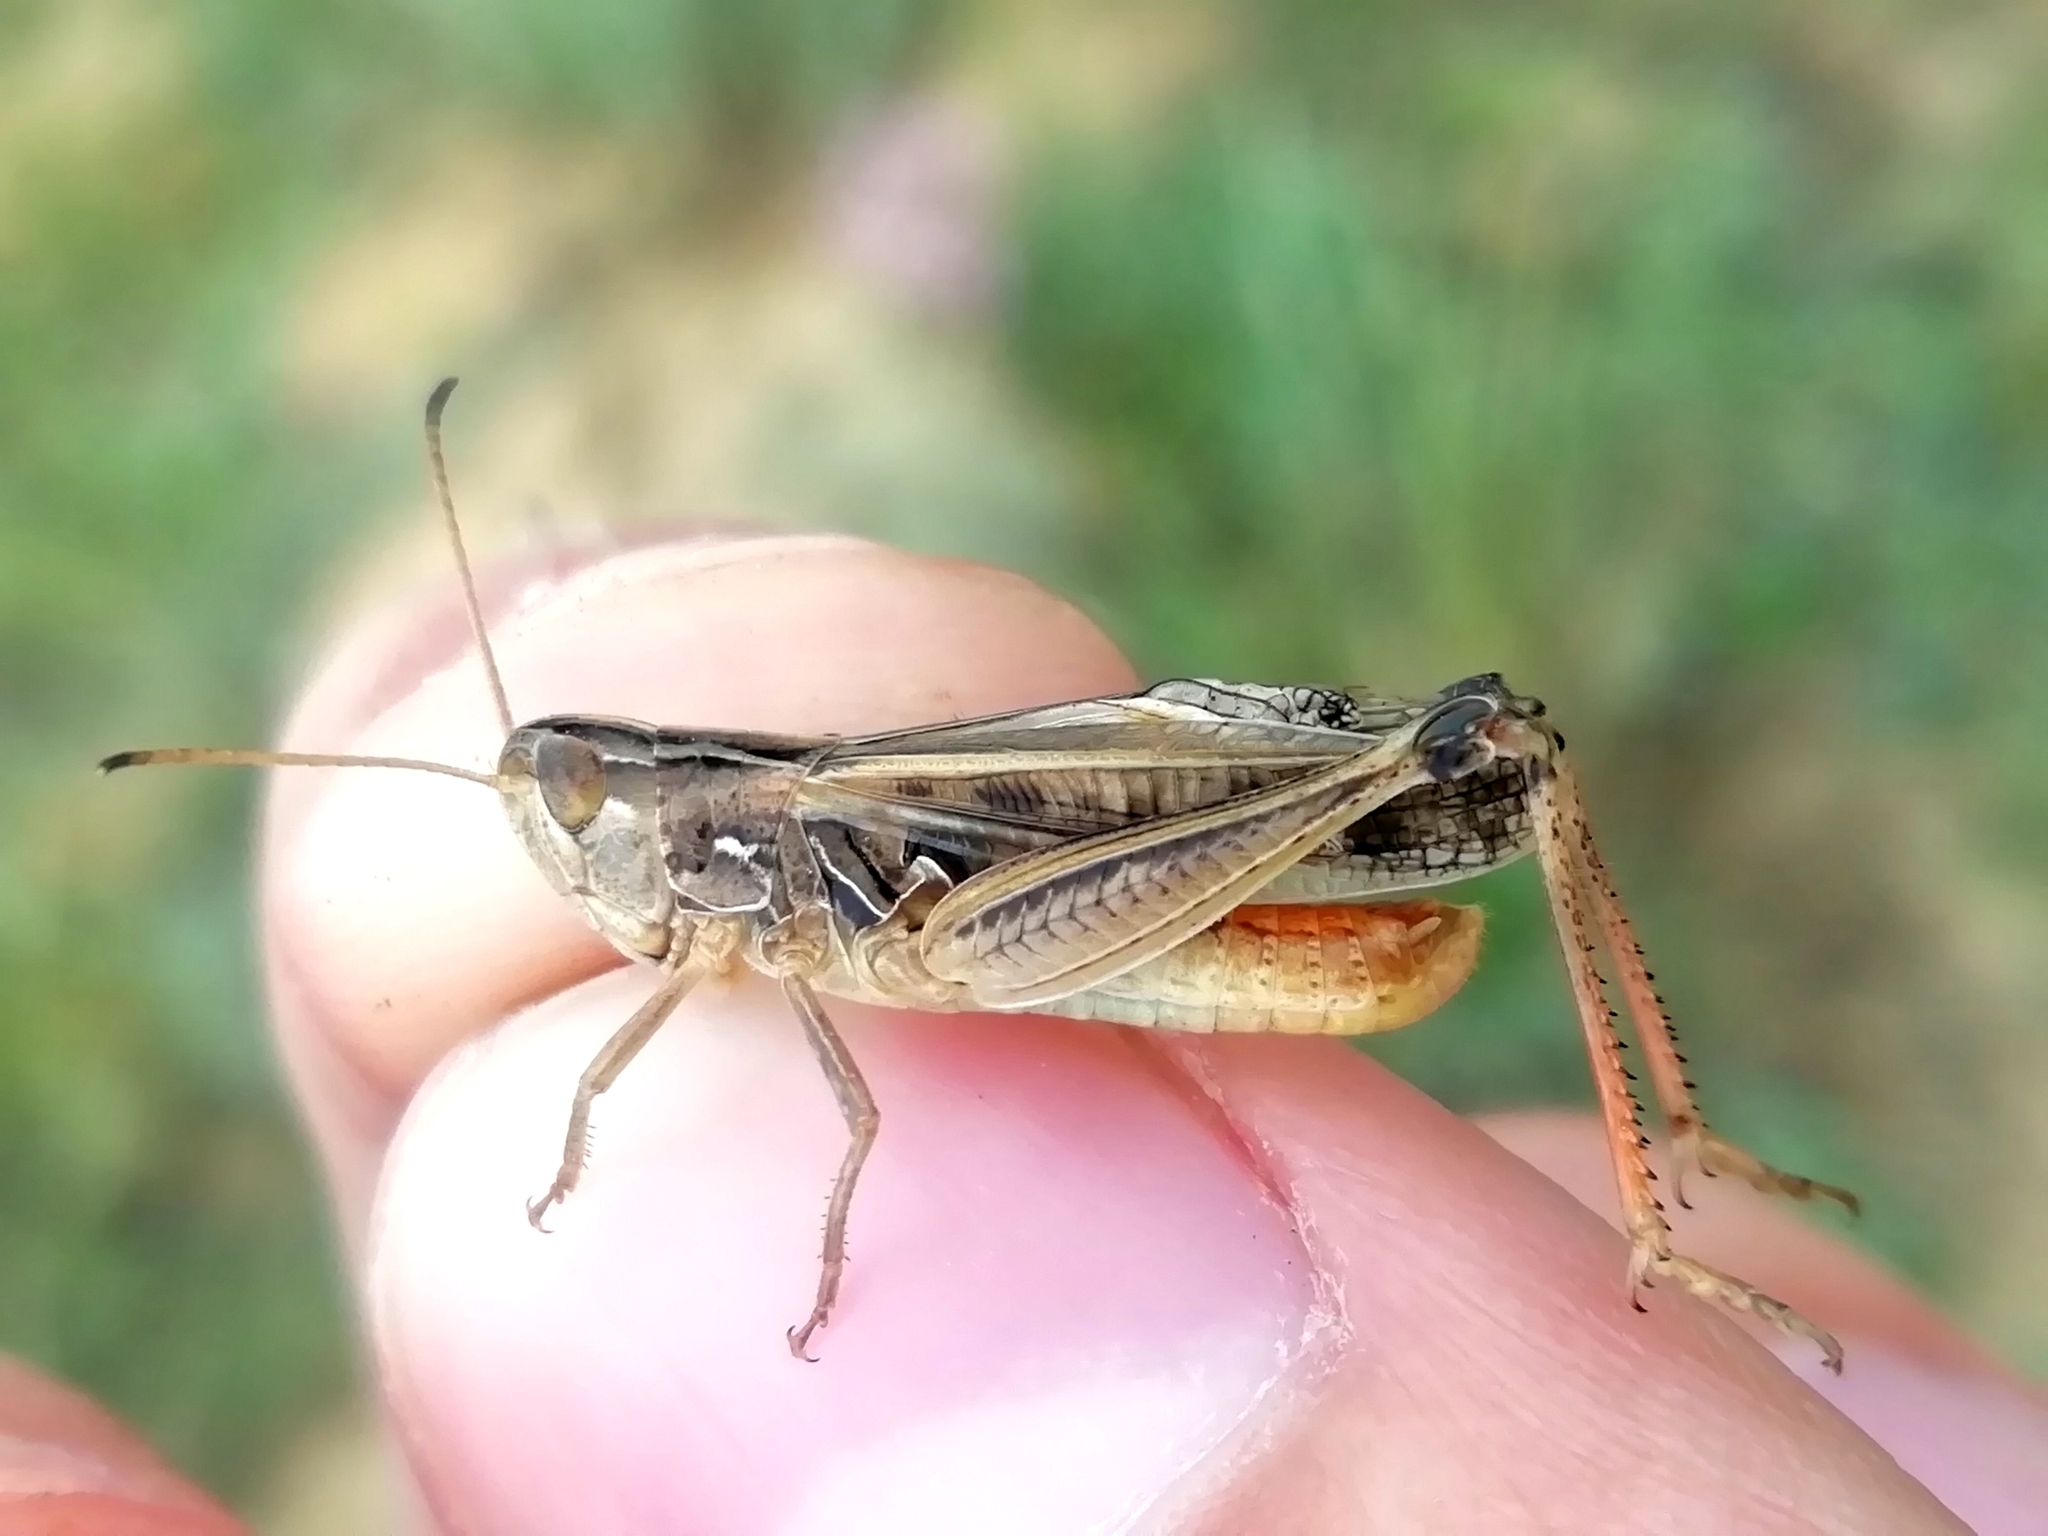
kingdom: Animalia
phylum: Arthropoda
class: Insecta
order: Orthoptera
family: Acrididae
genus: Stenobothrus
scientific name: Stenobothrus eurasius
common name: Eurasian toothed grasshopper
